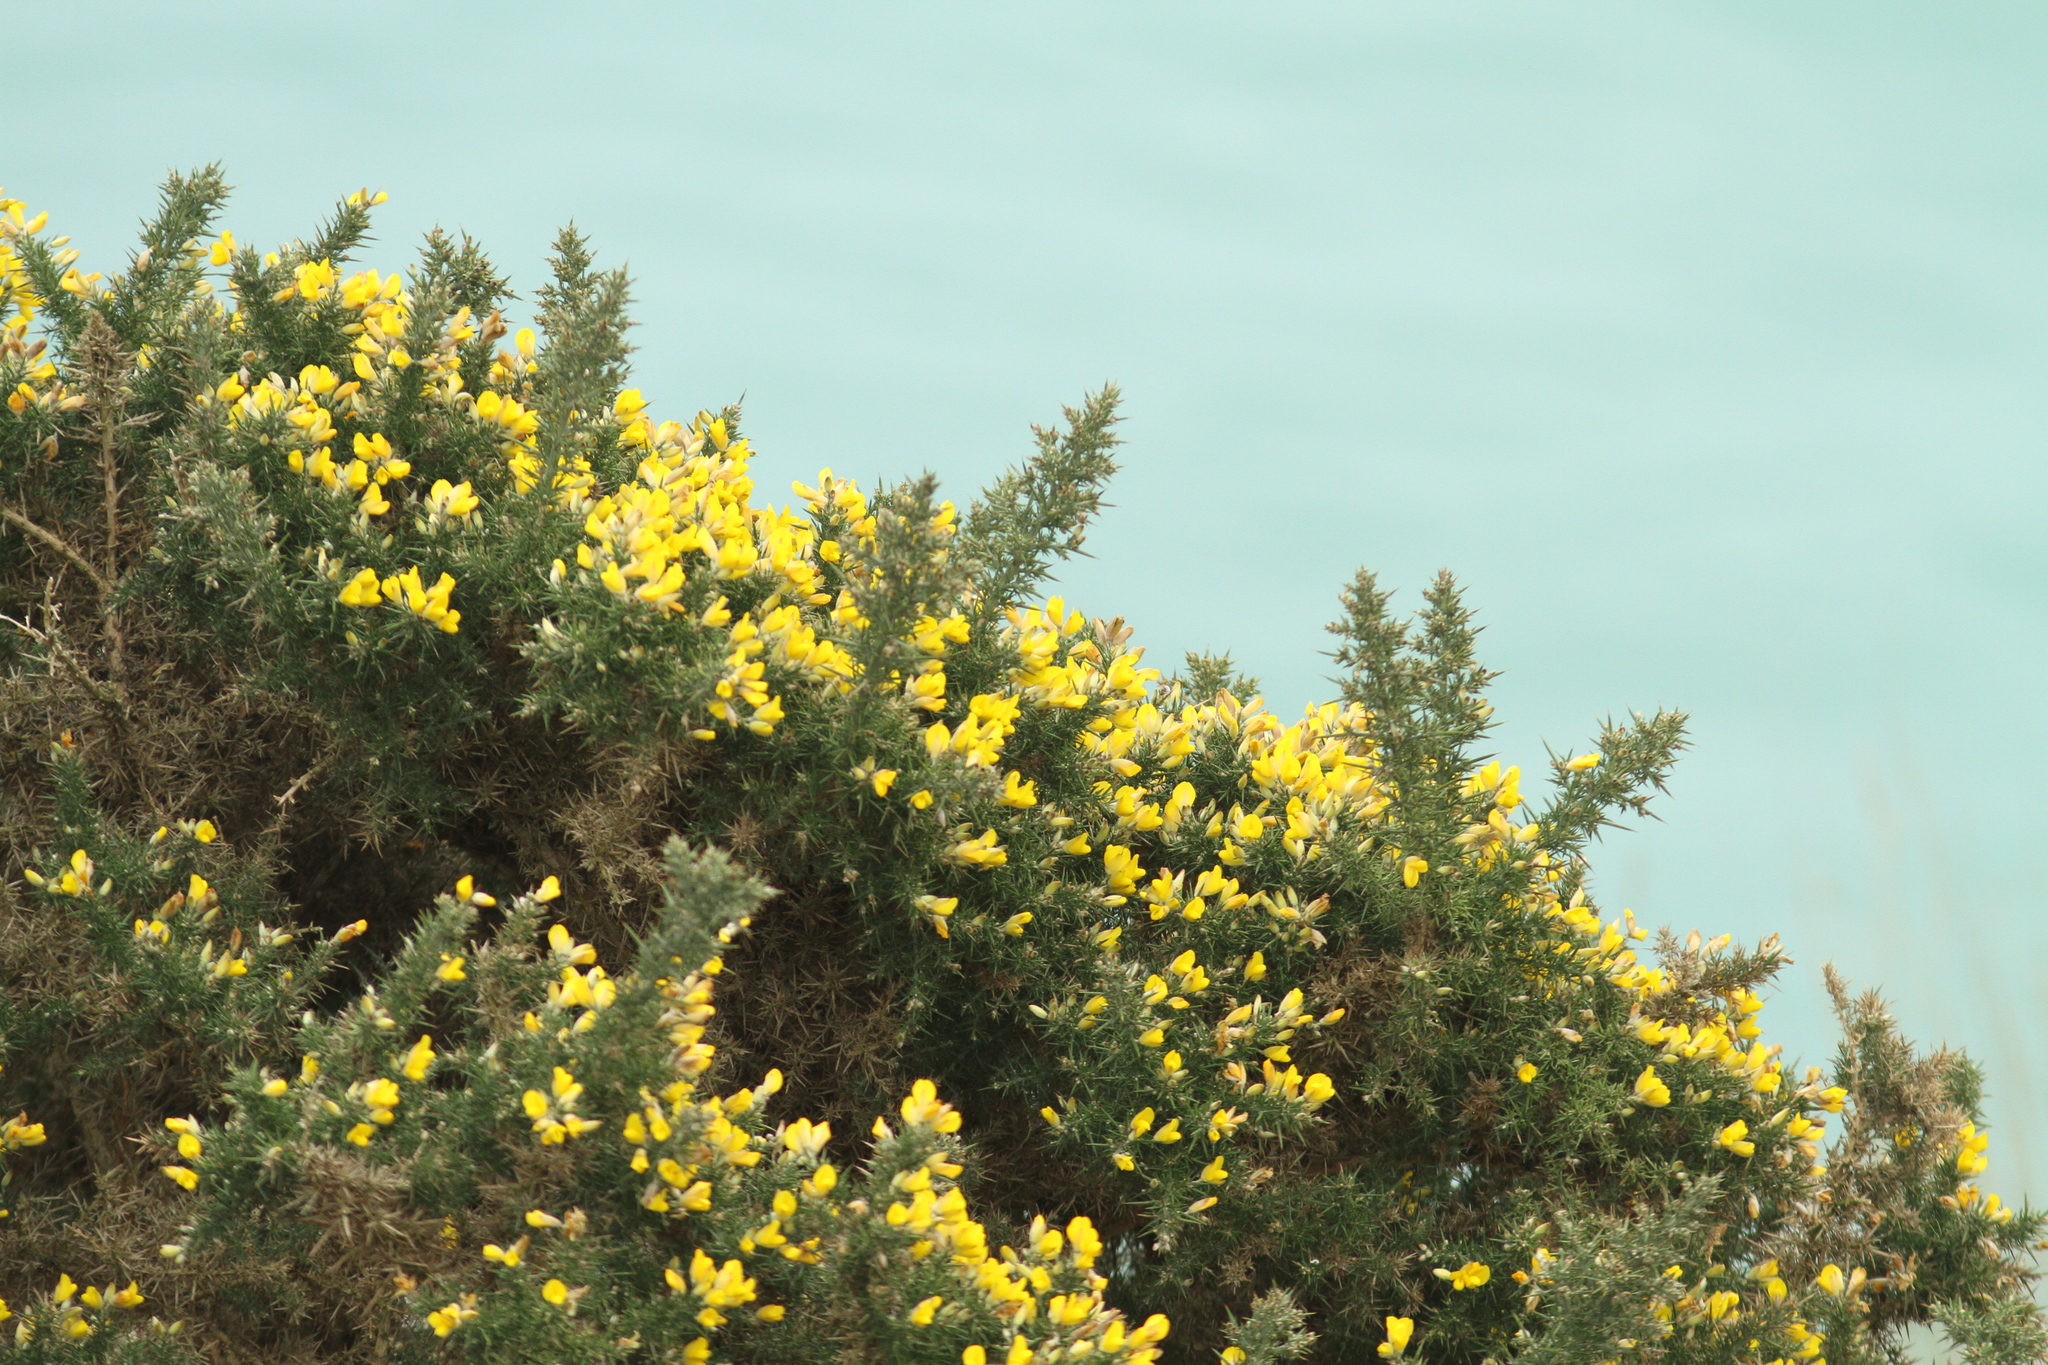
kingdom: Plantae
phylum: Tracheophyta
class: Magnoliopsida
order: Fabales
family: Fabaceae
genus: Ulex
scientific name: Ulex europaeus
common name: Common gorse
